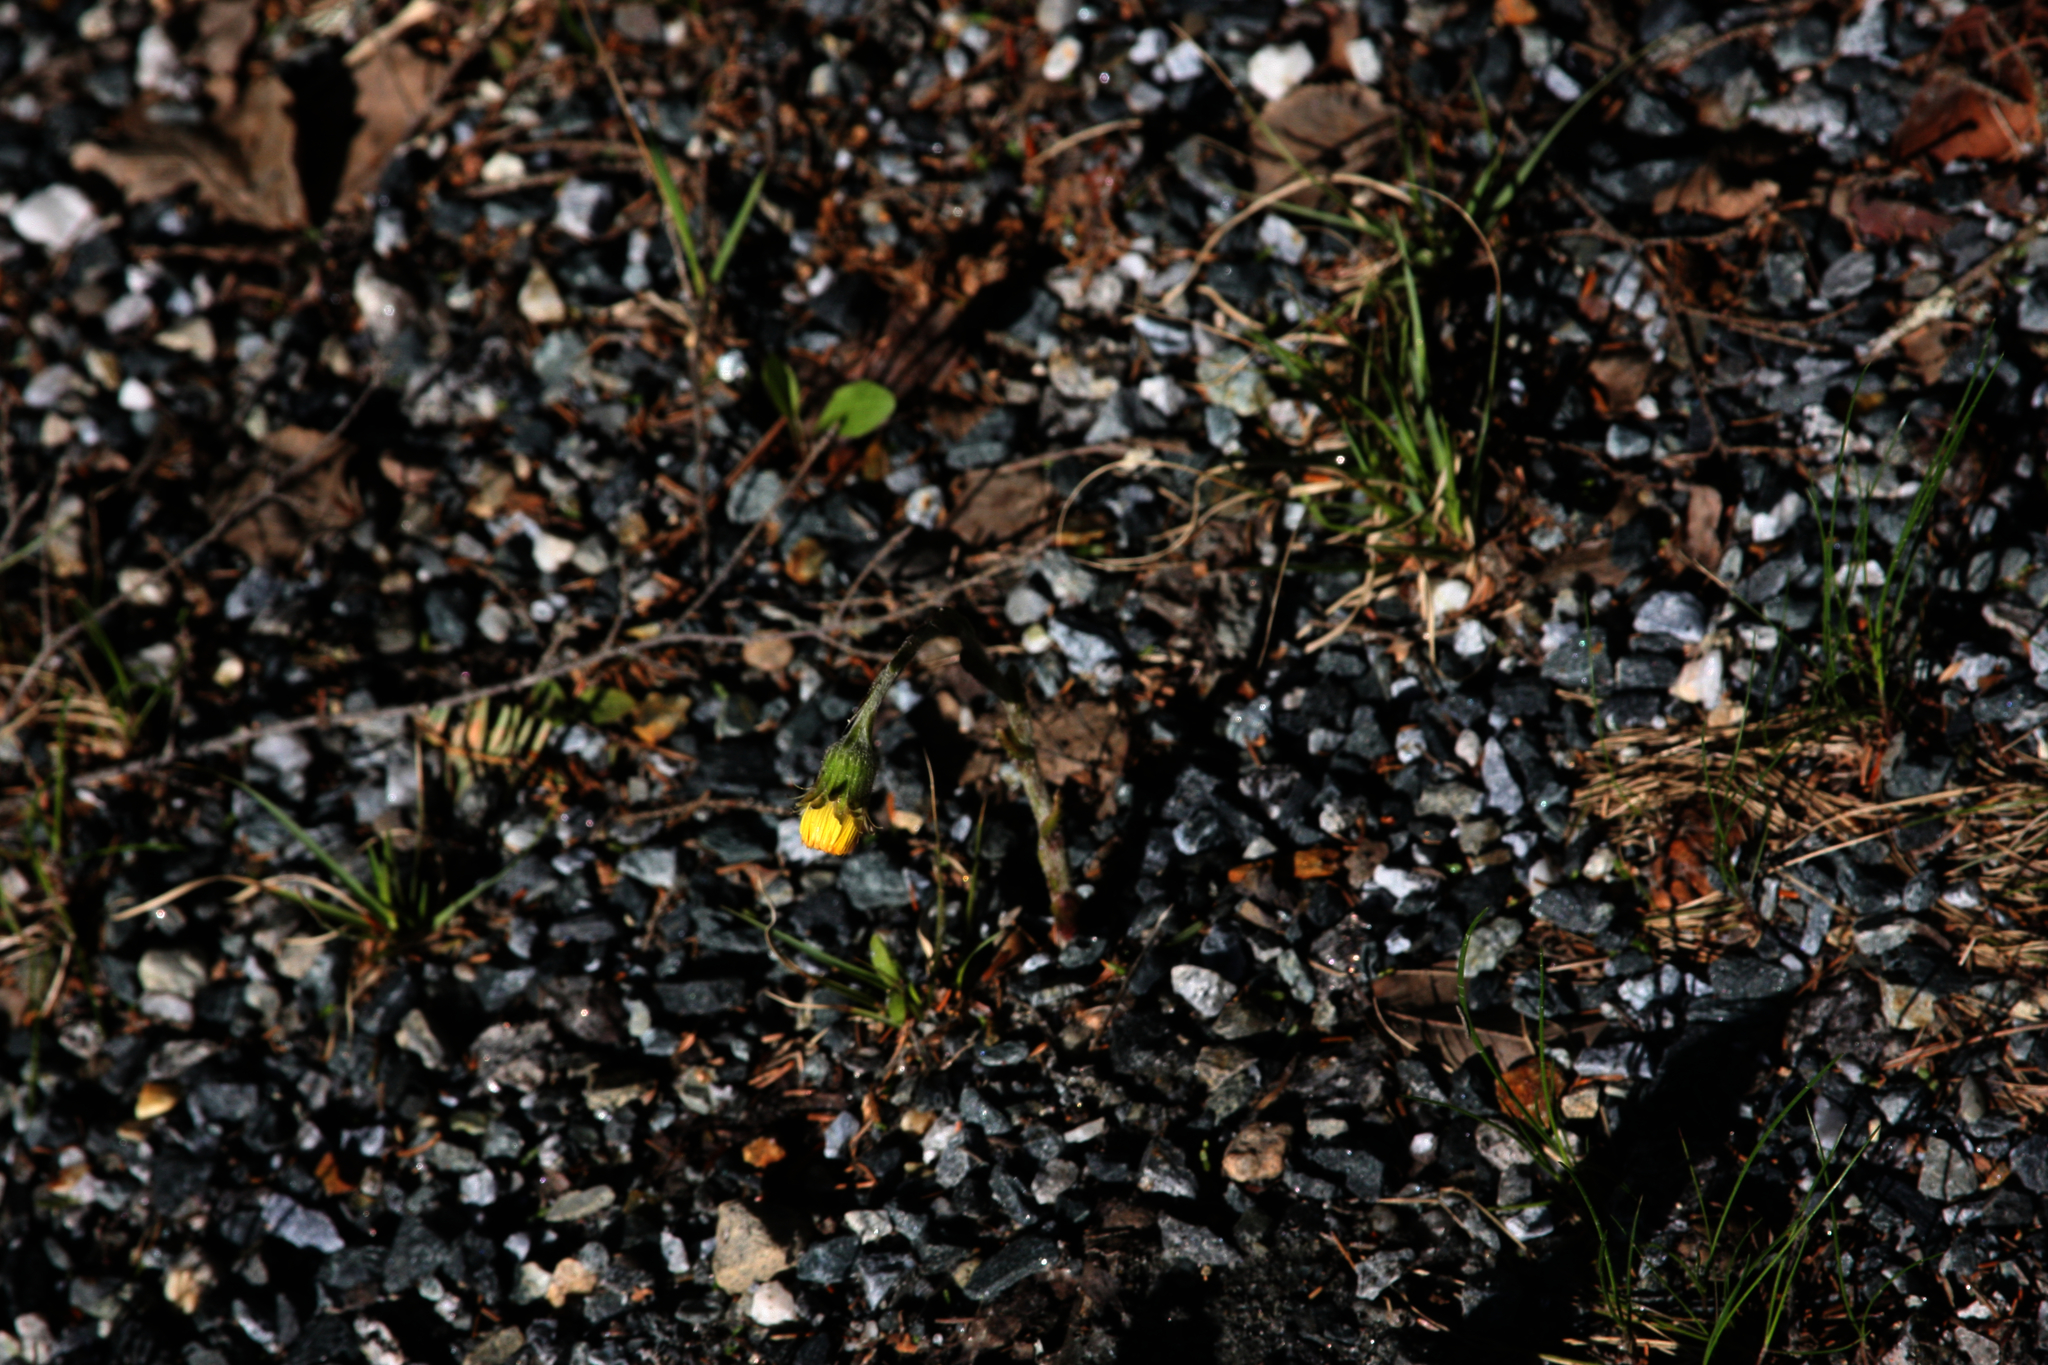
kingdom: Plantae
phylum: Tracheophyta
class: Magnoliopsida
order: Asterales
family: Asteraceae
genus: Tussilago
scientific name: Tussilago farfara
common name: Coltsfoot
